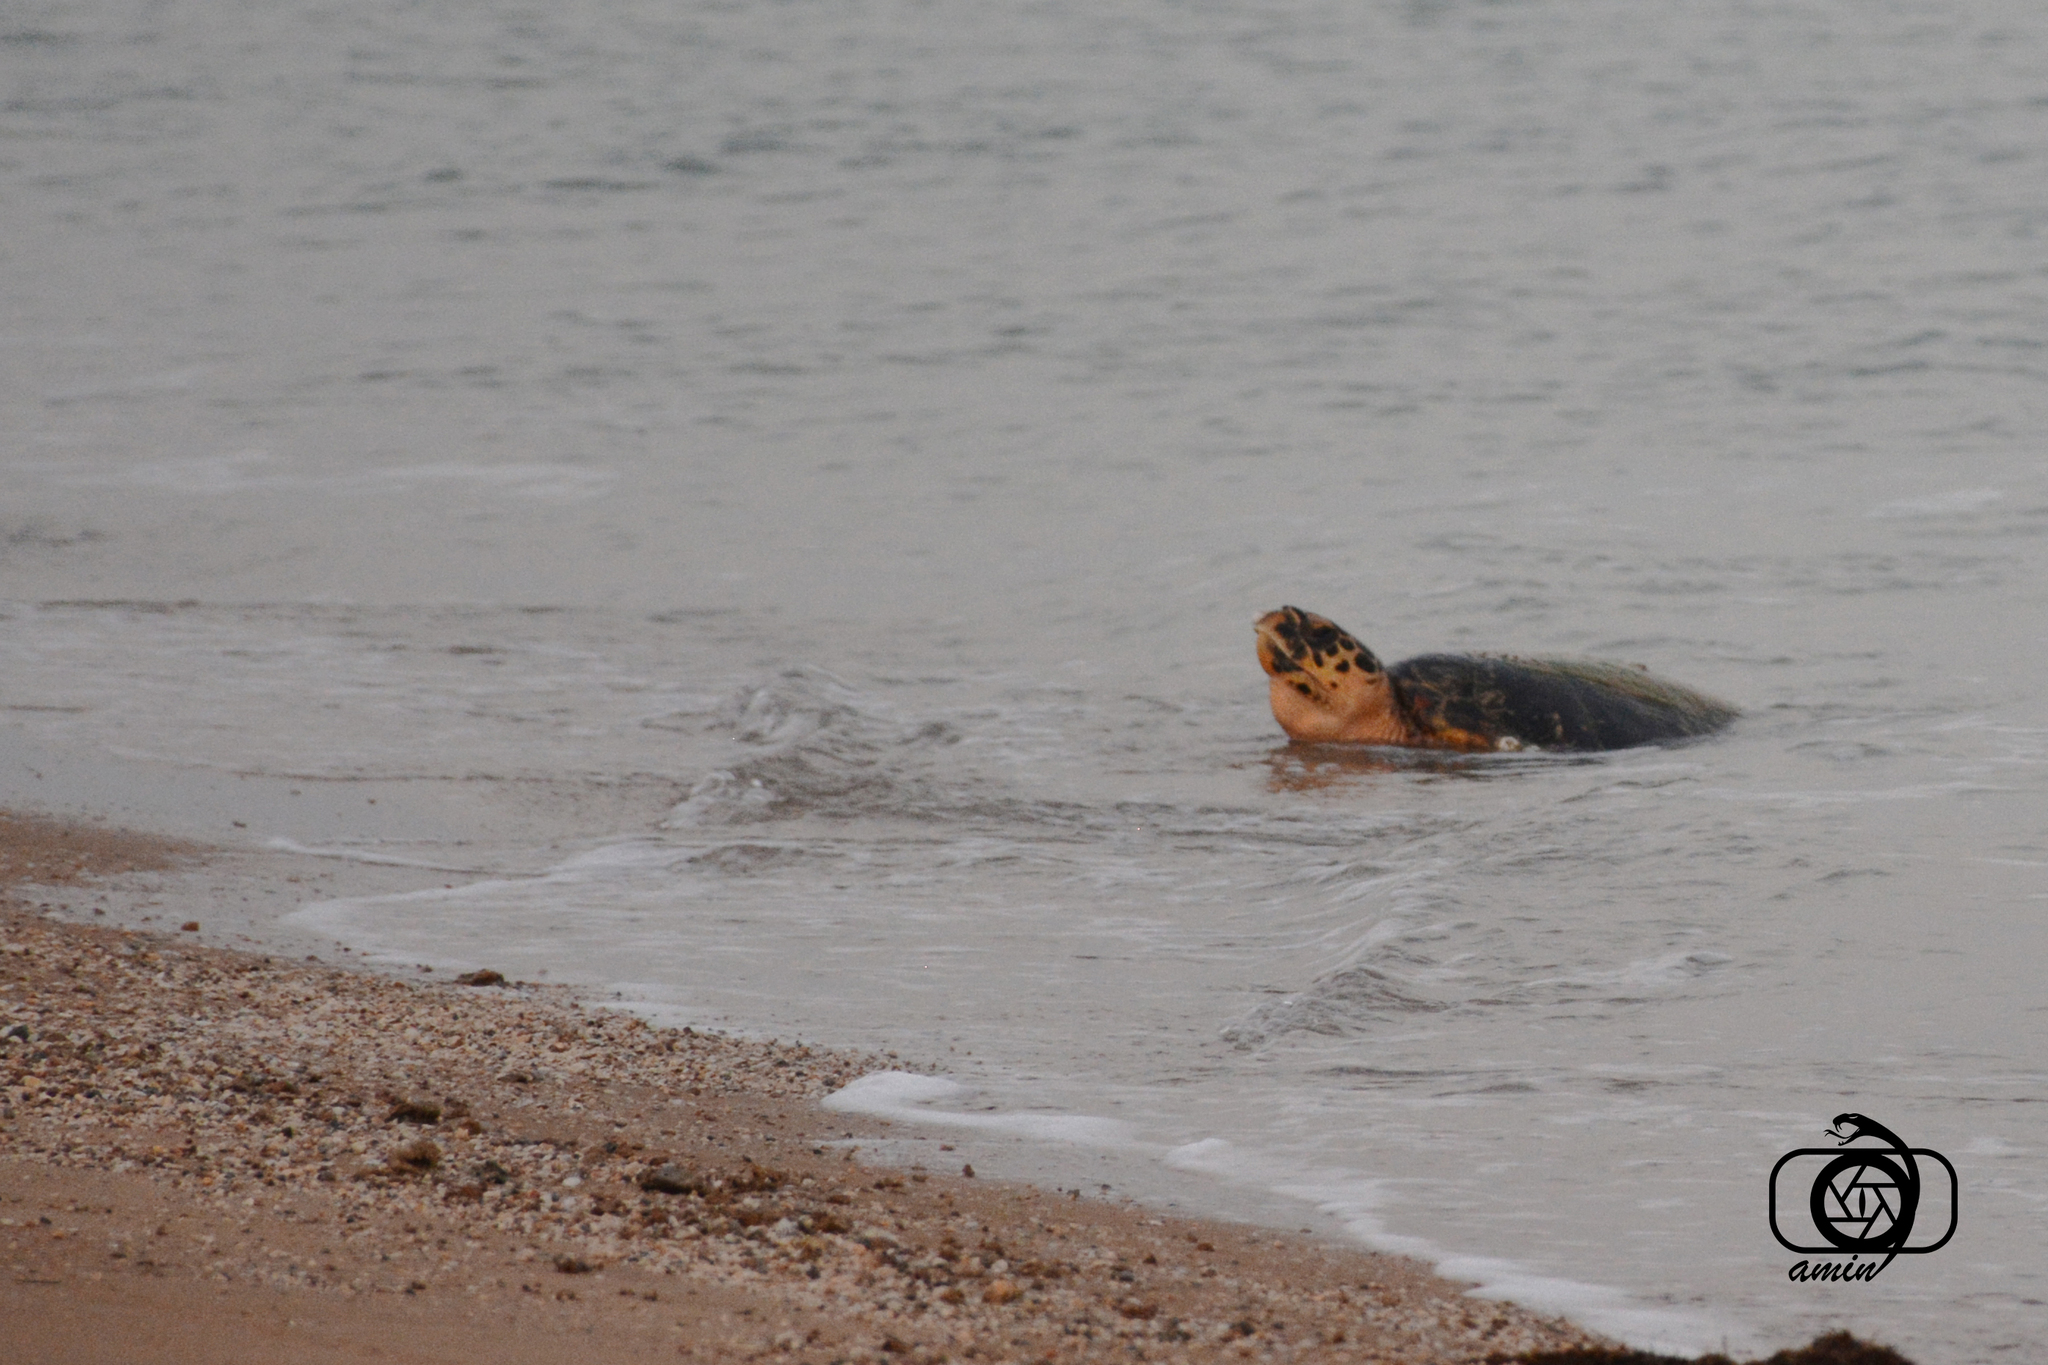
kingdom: Animalia
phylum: Chordata
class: Testudines
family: Cheloniidae
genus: Eretmochelys
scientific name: Eretmochelys imbricata
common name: Hawksbill turtle
